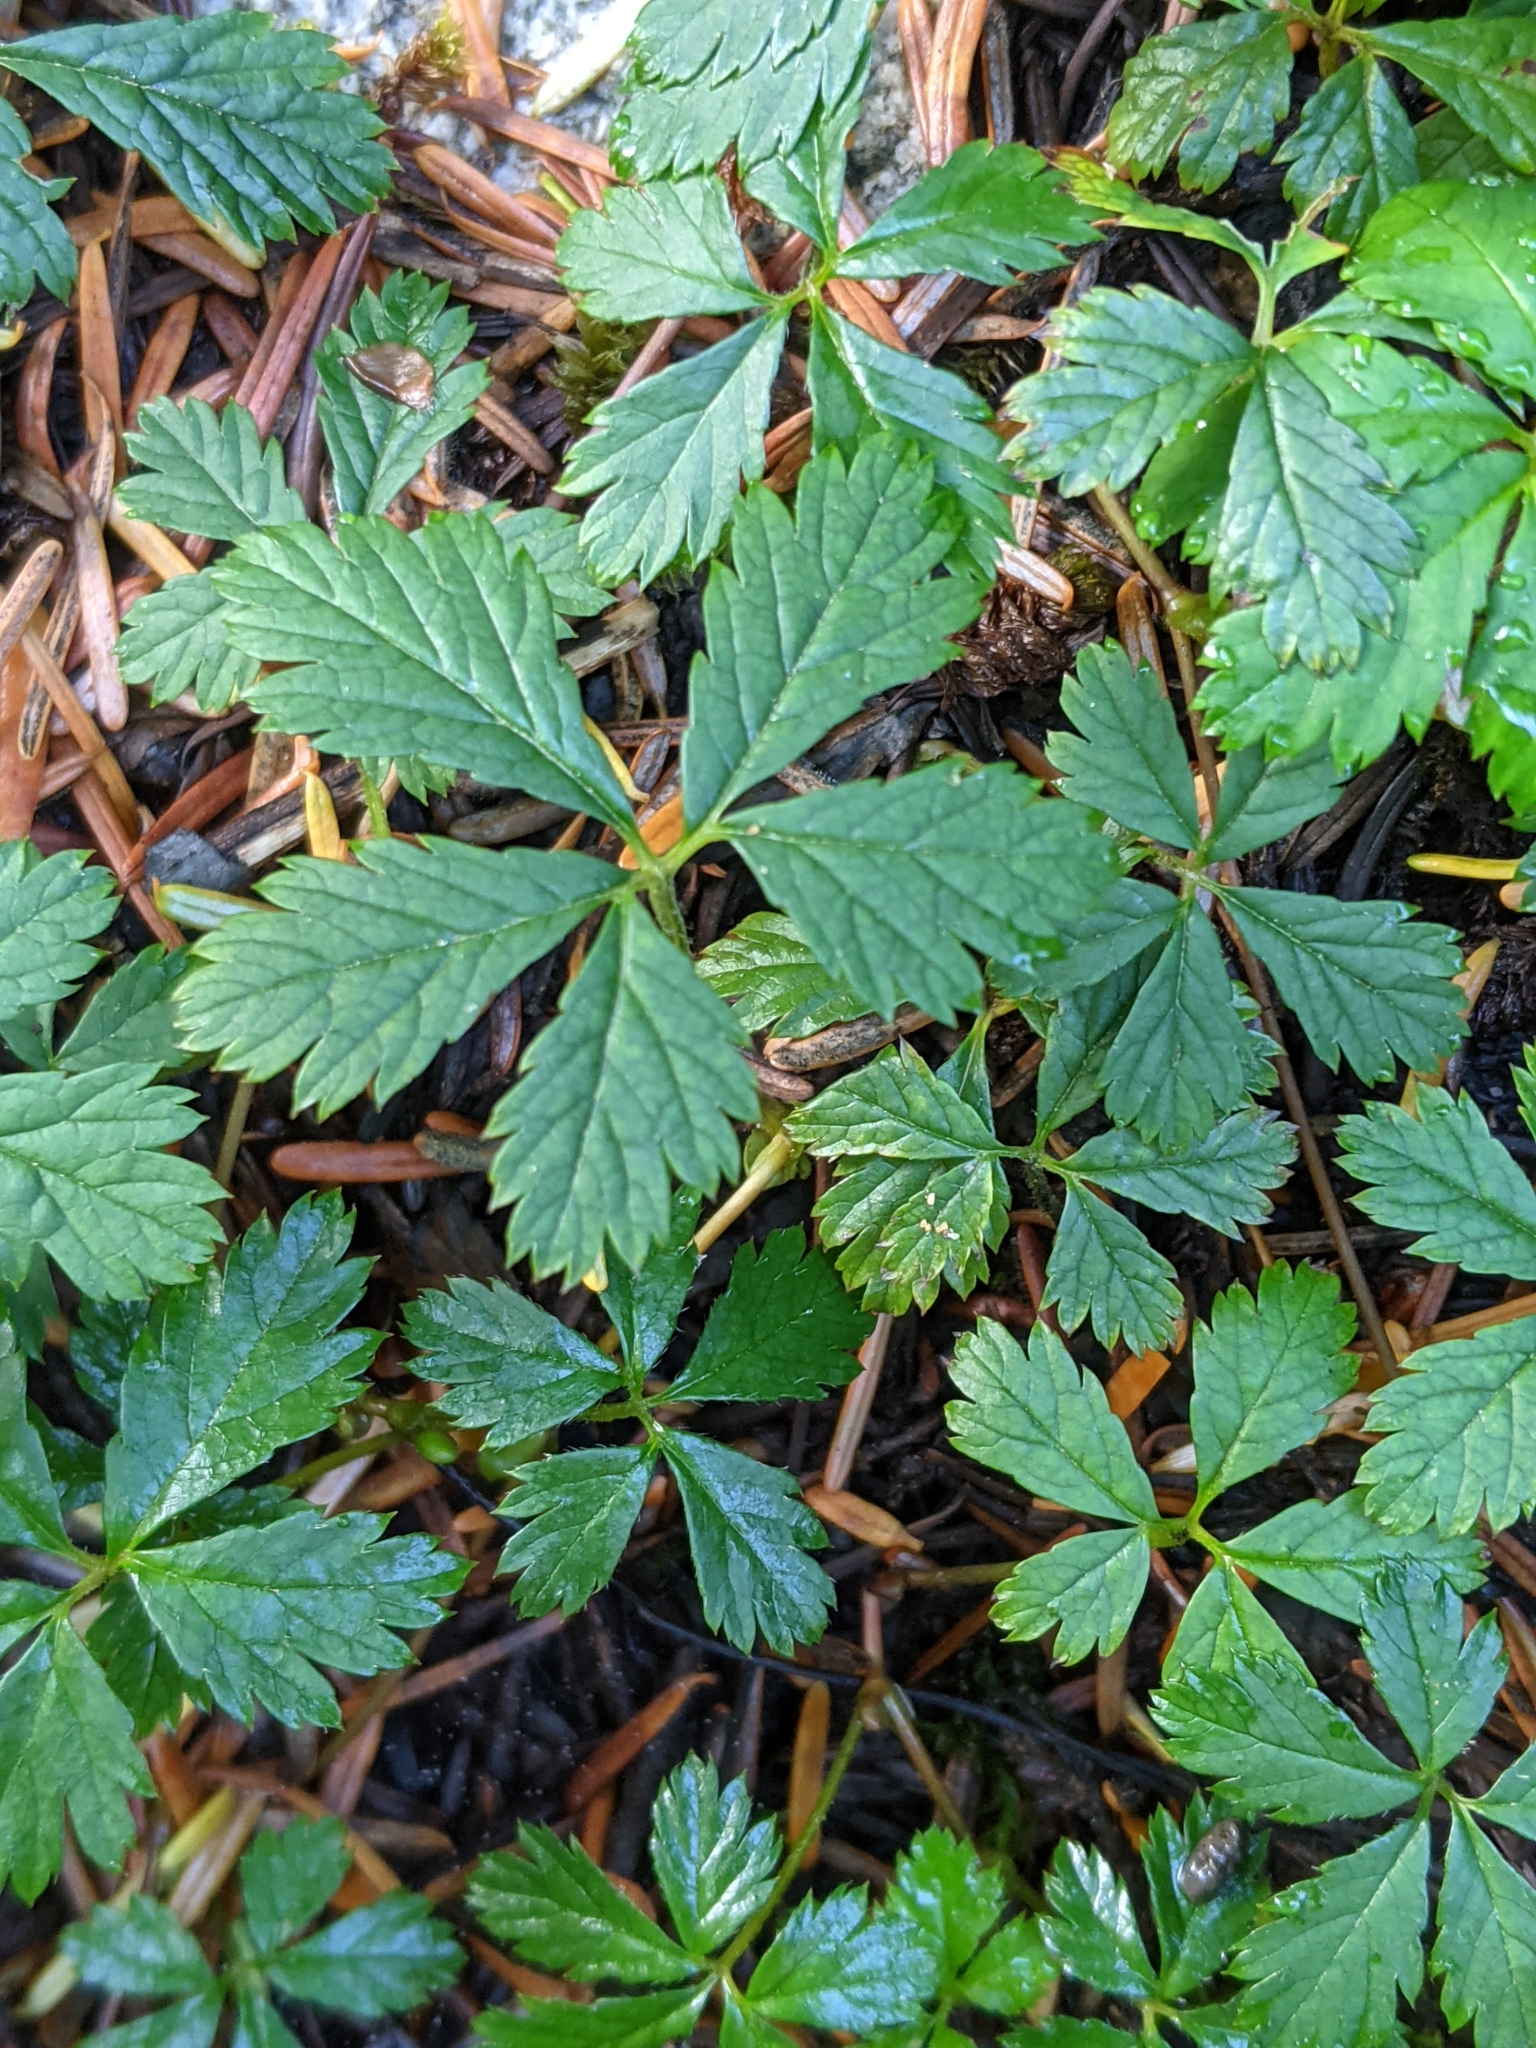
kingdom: Plantae
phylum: Tracheophyta
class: Magnoliopsida
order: Rosales
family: Rosaceae
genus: Rubus
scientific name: Rubus pedatus
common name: Creeping raspberry
